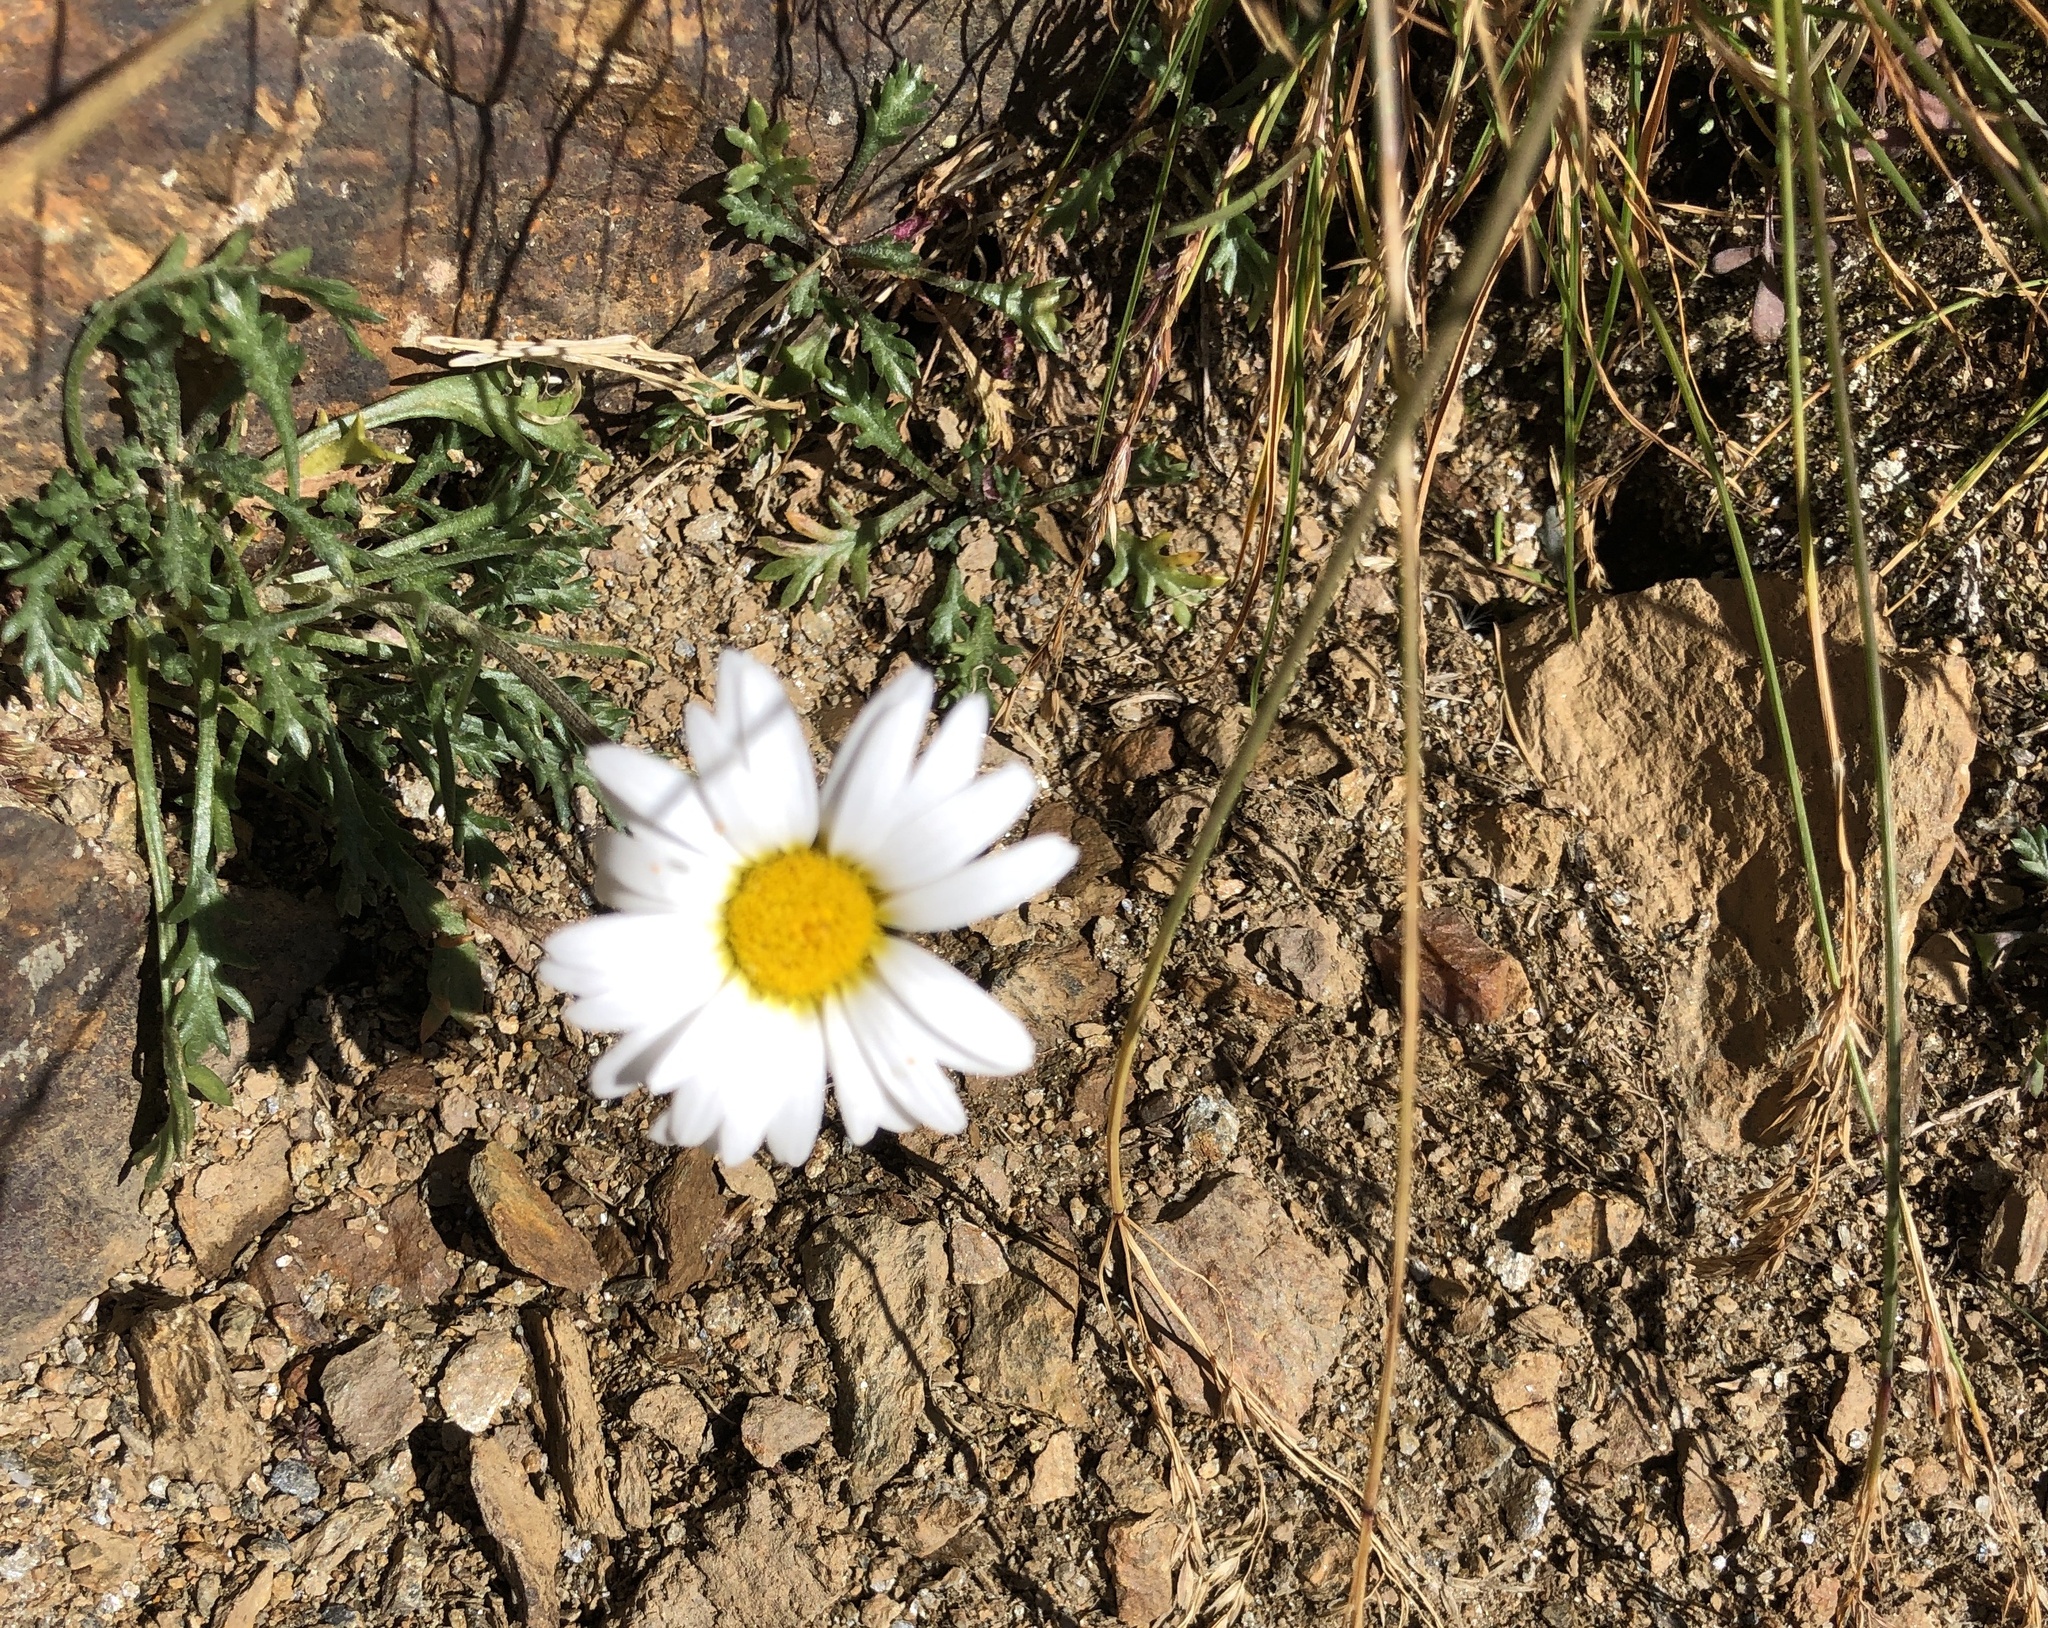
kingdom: Plantae
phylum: Tracheophyta
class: Magnoliopsida
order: Asterales
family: Asteraceae
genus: Leucanthemopsis
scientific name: Leucanthemopsis alpina
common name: Alpine moon daisy
